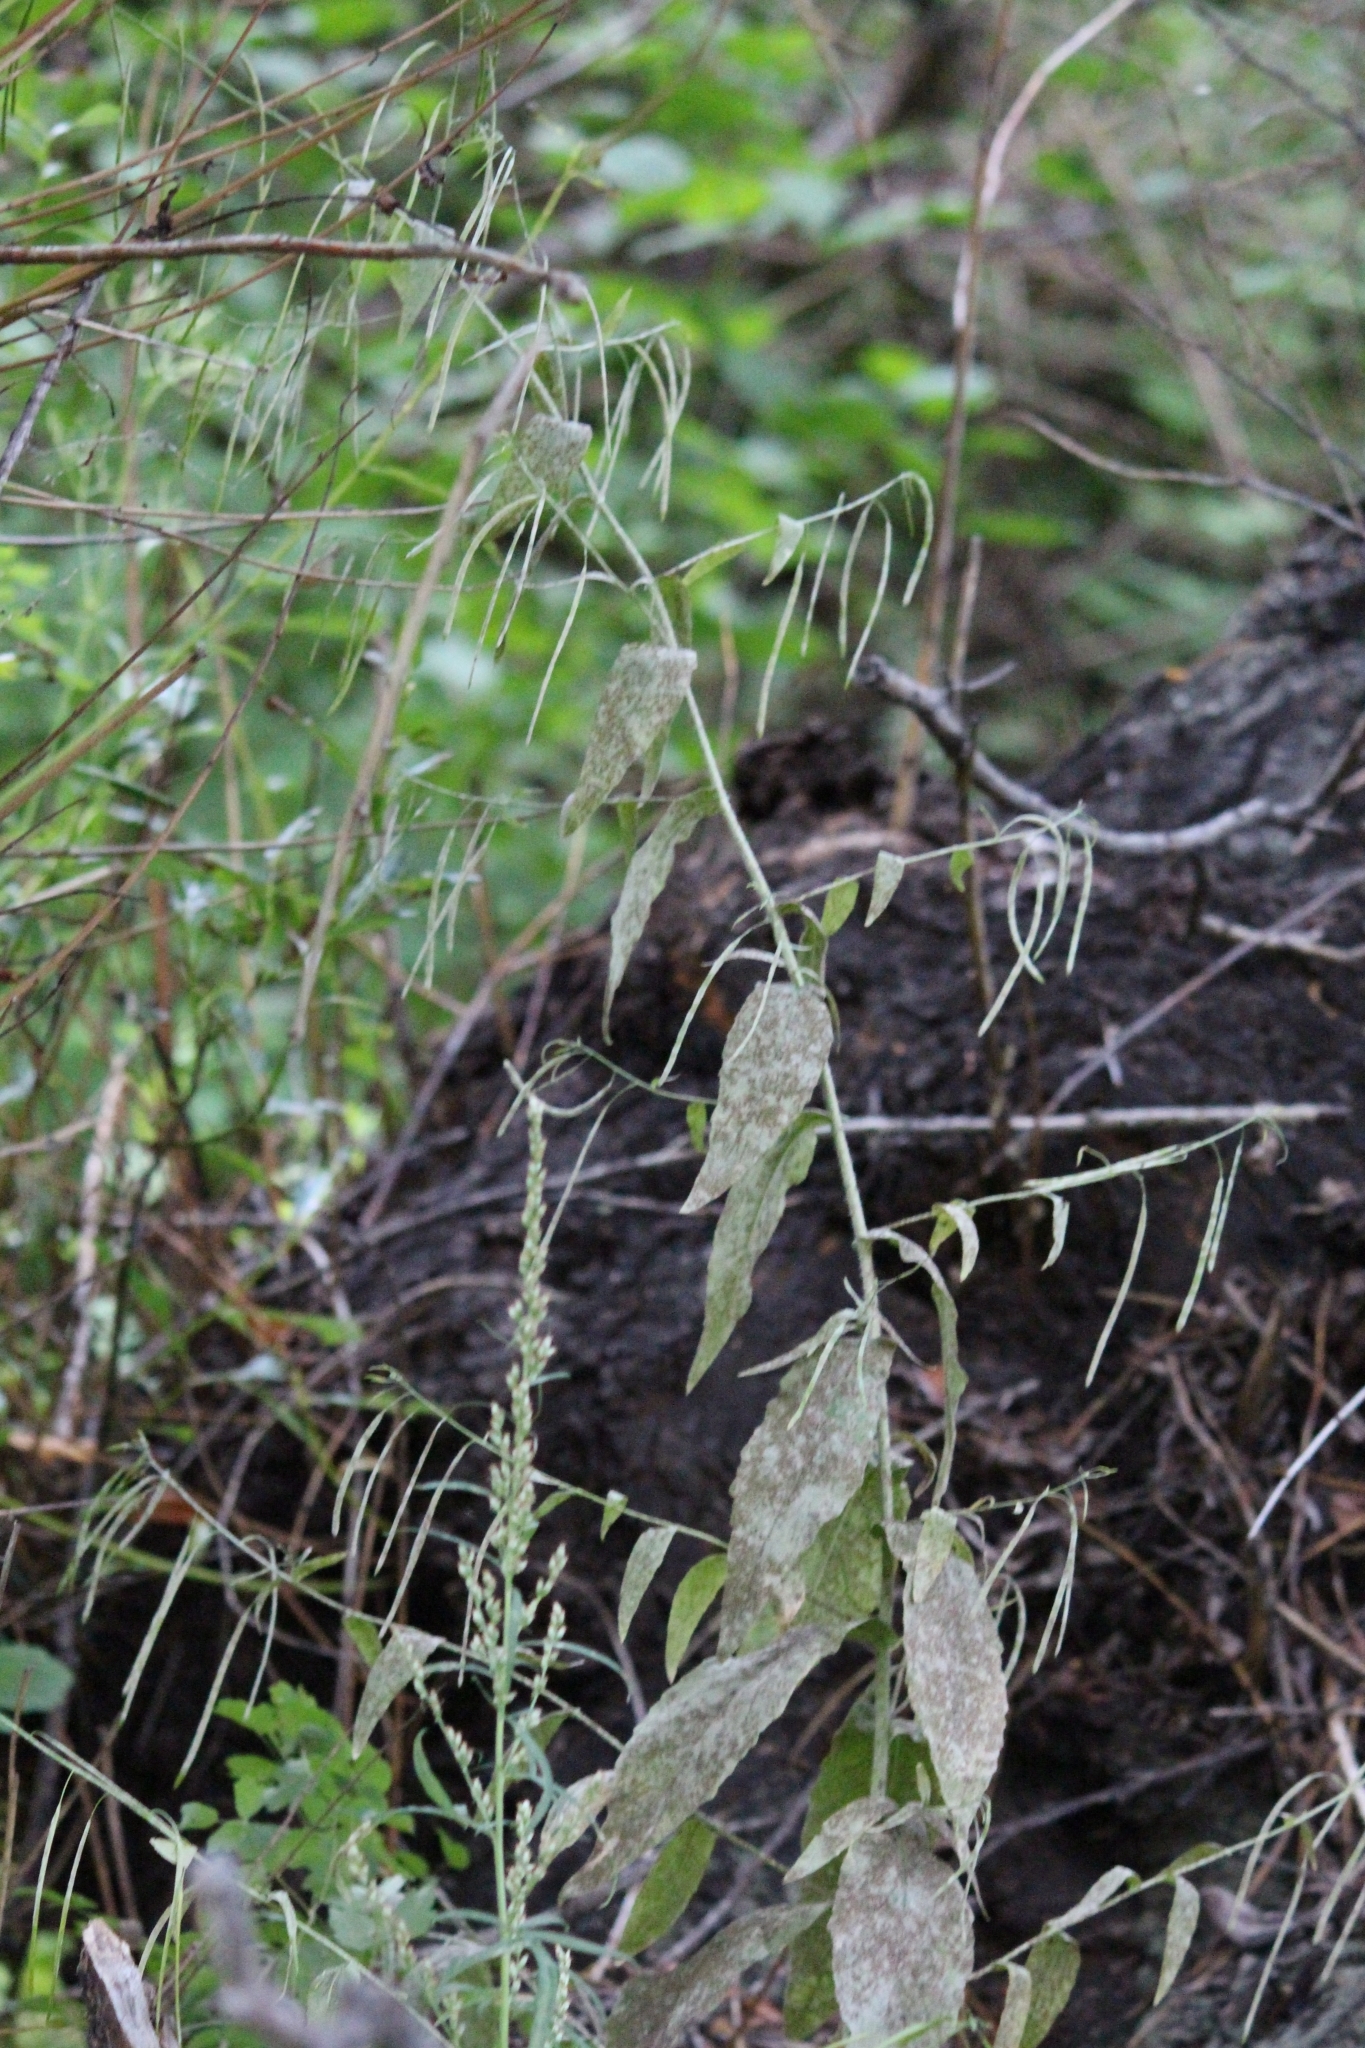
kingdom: Plantae
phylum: Tracheophyta
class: Magnoliopsida
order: Brassicales
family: Brassicaceae
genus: Catolobus
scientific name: Catolobus pendulus
